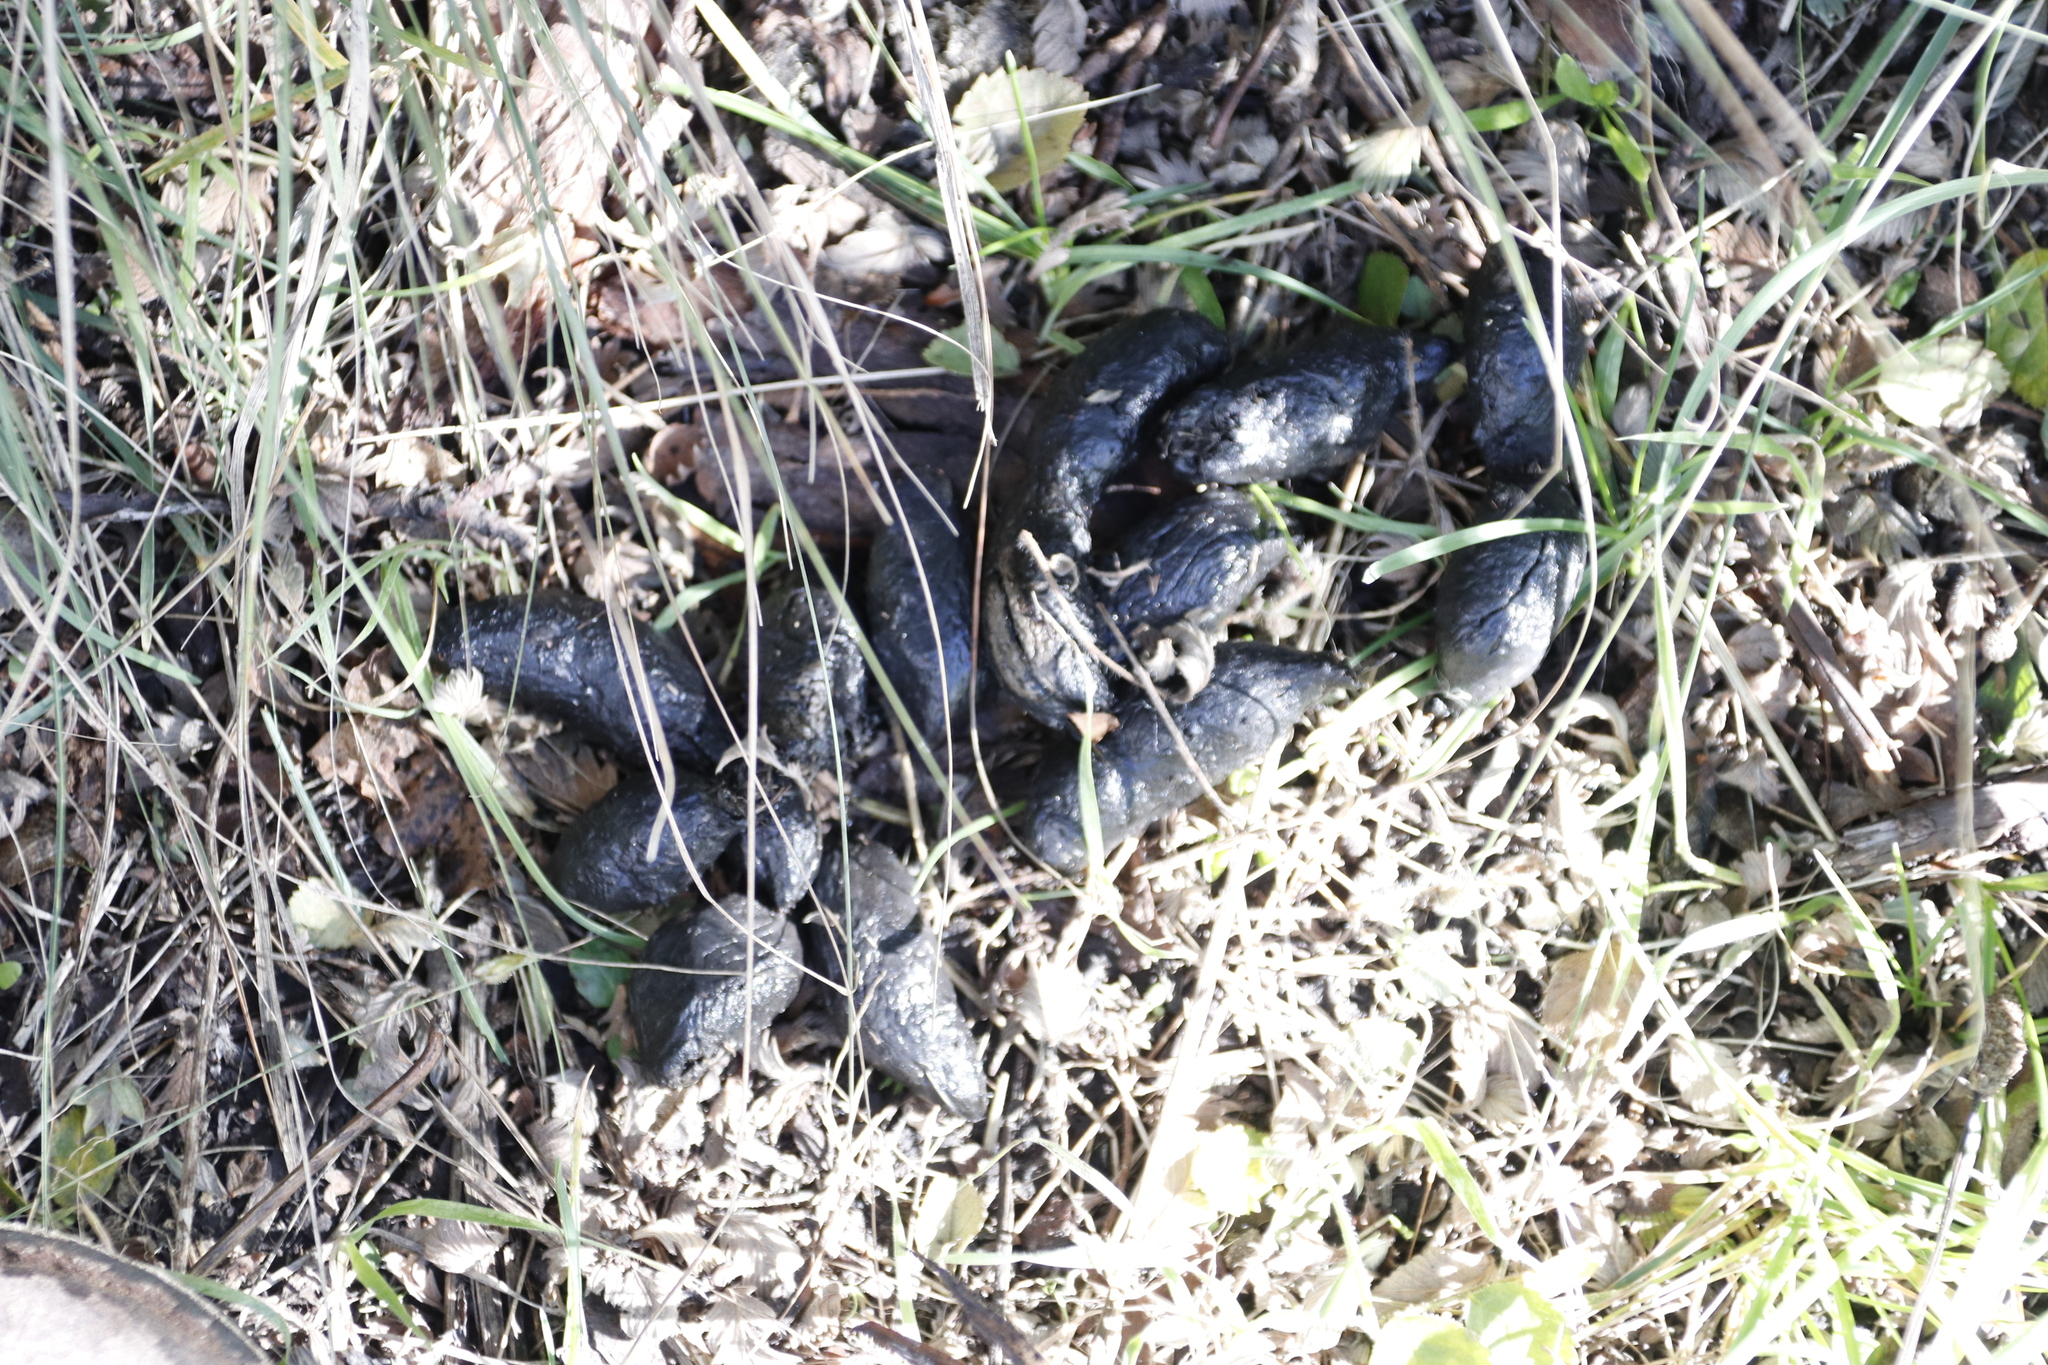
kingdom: Animalia
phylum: Chordata
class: Mammalia
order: Rodentia
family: Hystricidae
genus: Hystrix
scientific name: Hystrix africaeaustralis
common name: Cape porcupine
